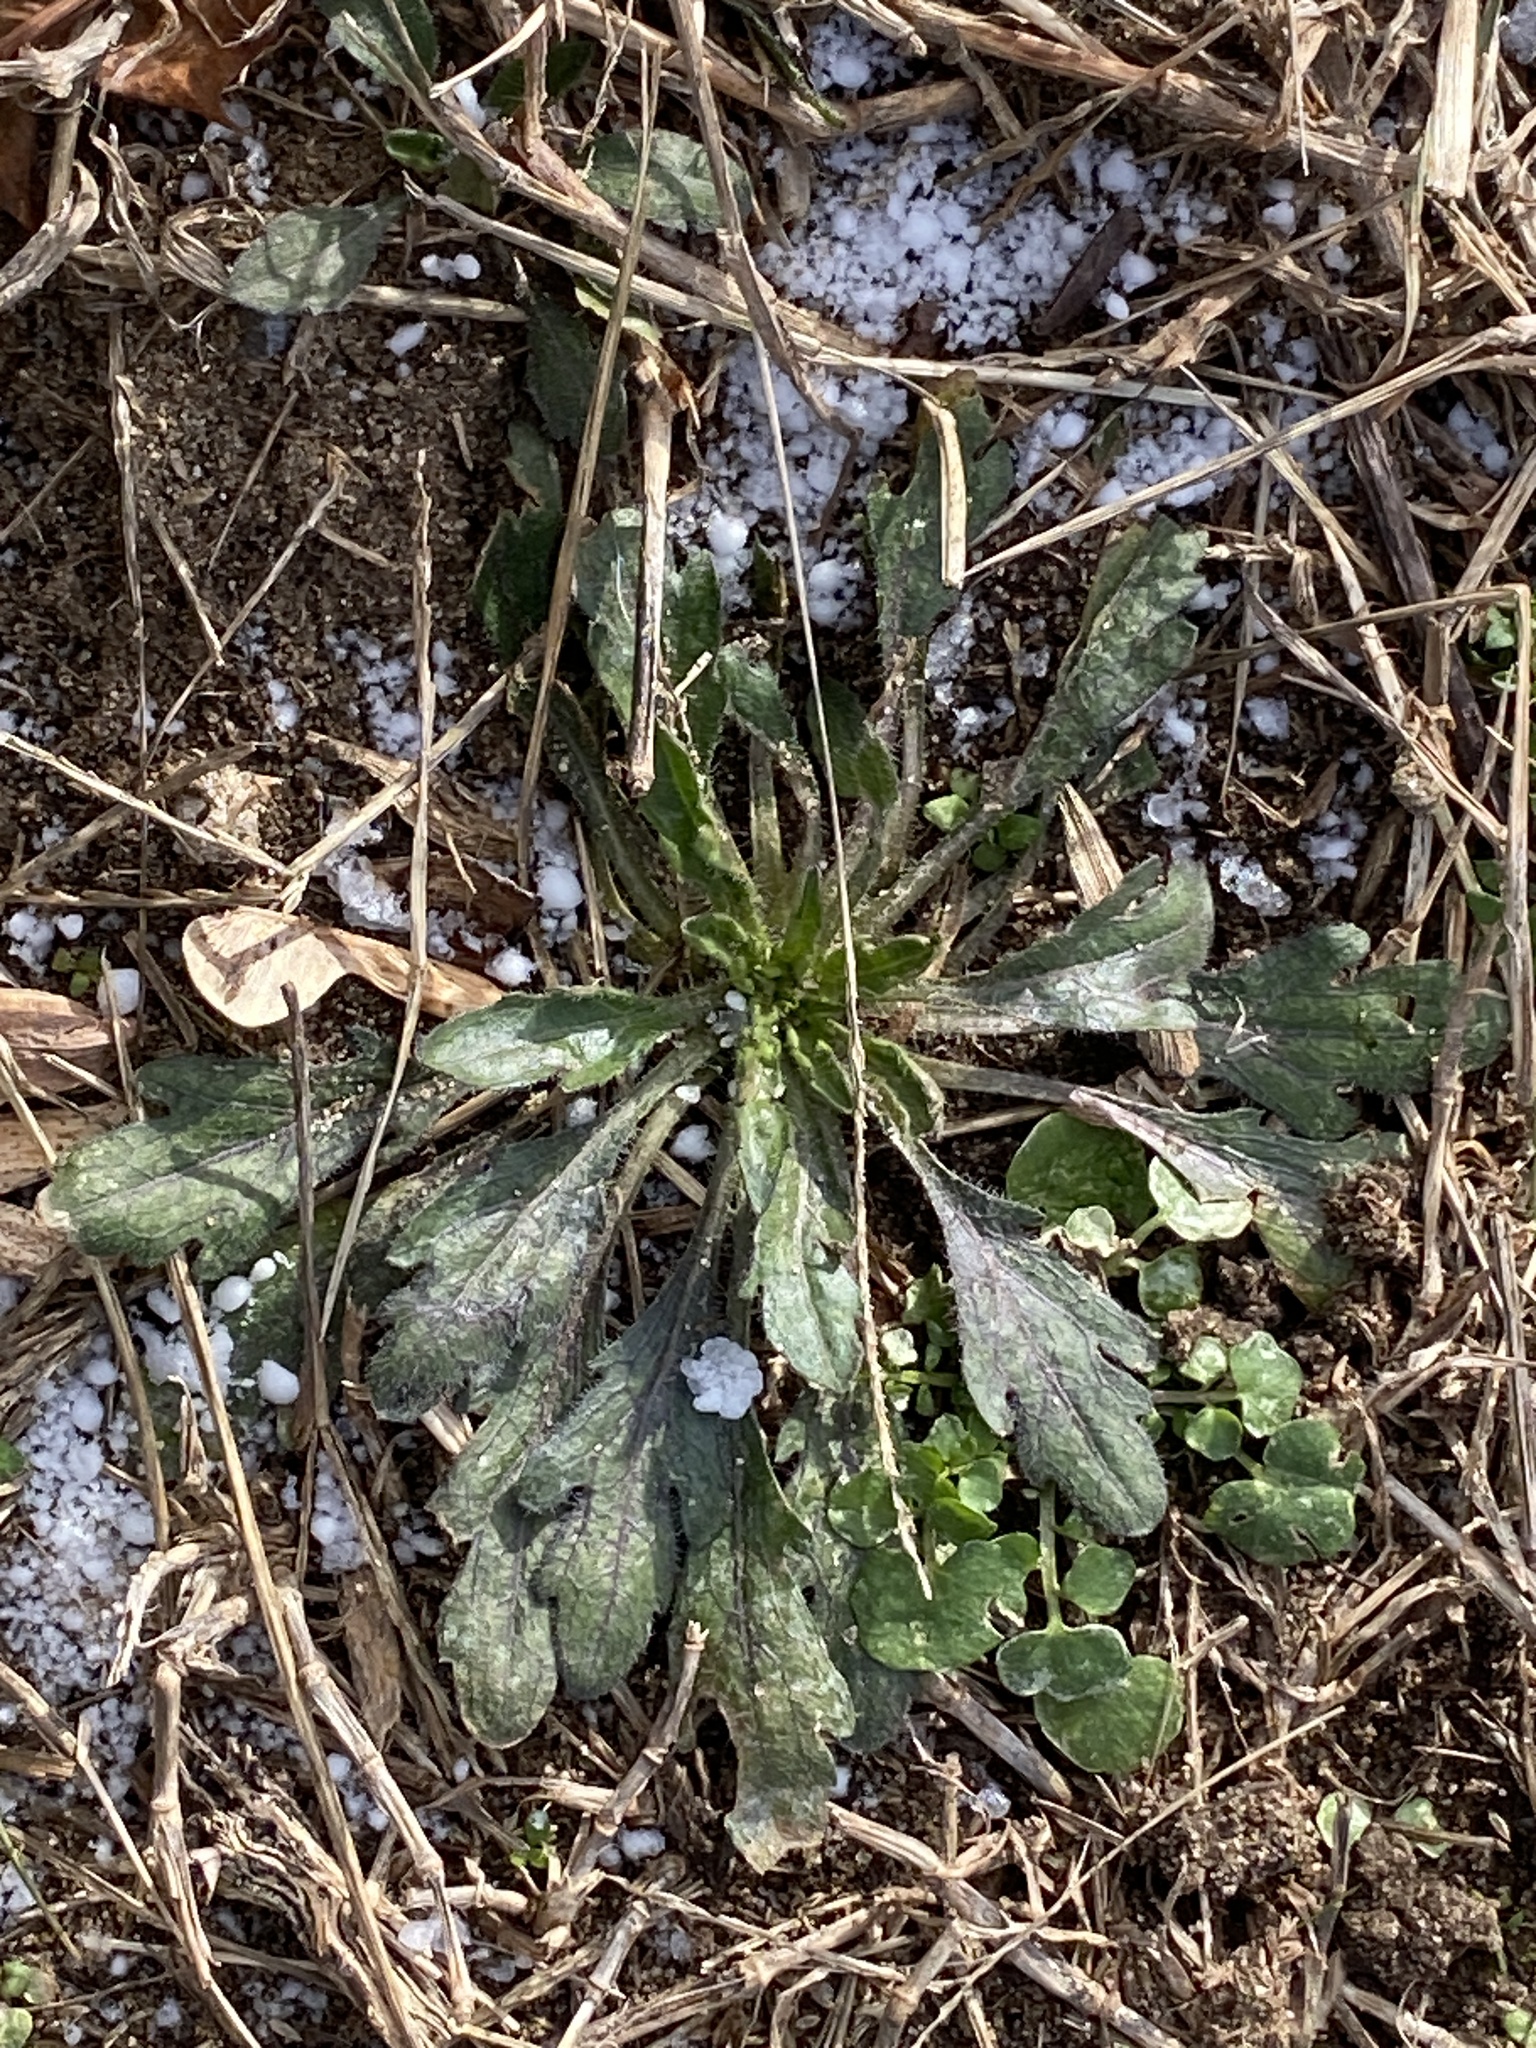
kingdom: Plantae
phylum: Tracheophyta
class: Magnoliopsida
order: Asterales
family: Asteraceae
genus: Erigeron
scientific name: Erigeron canadensis
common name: Canadian fleabane
